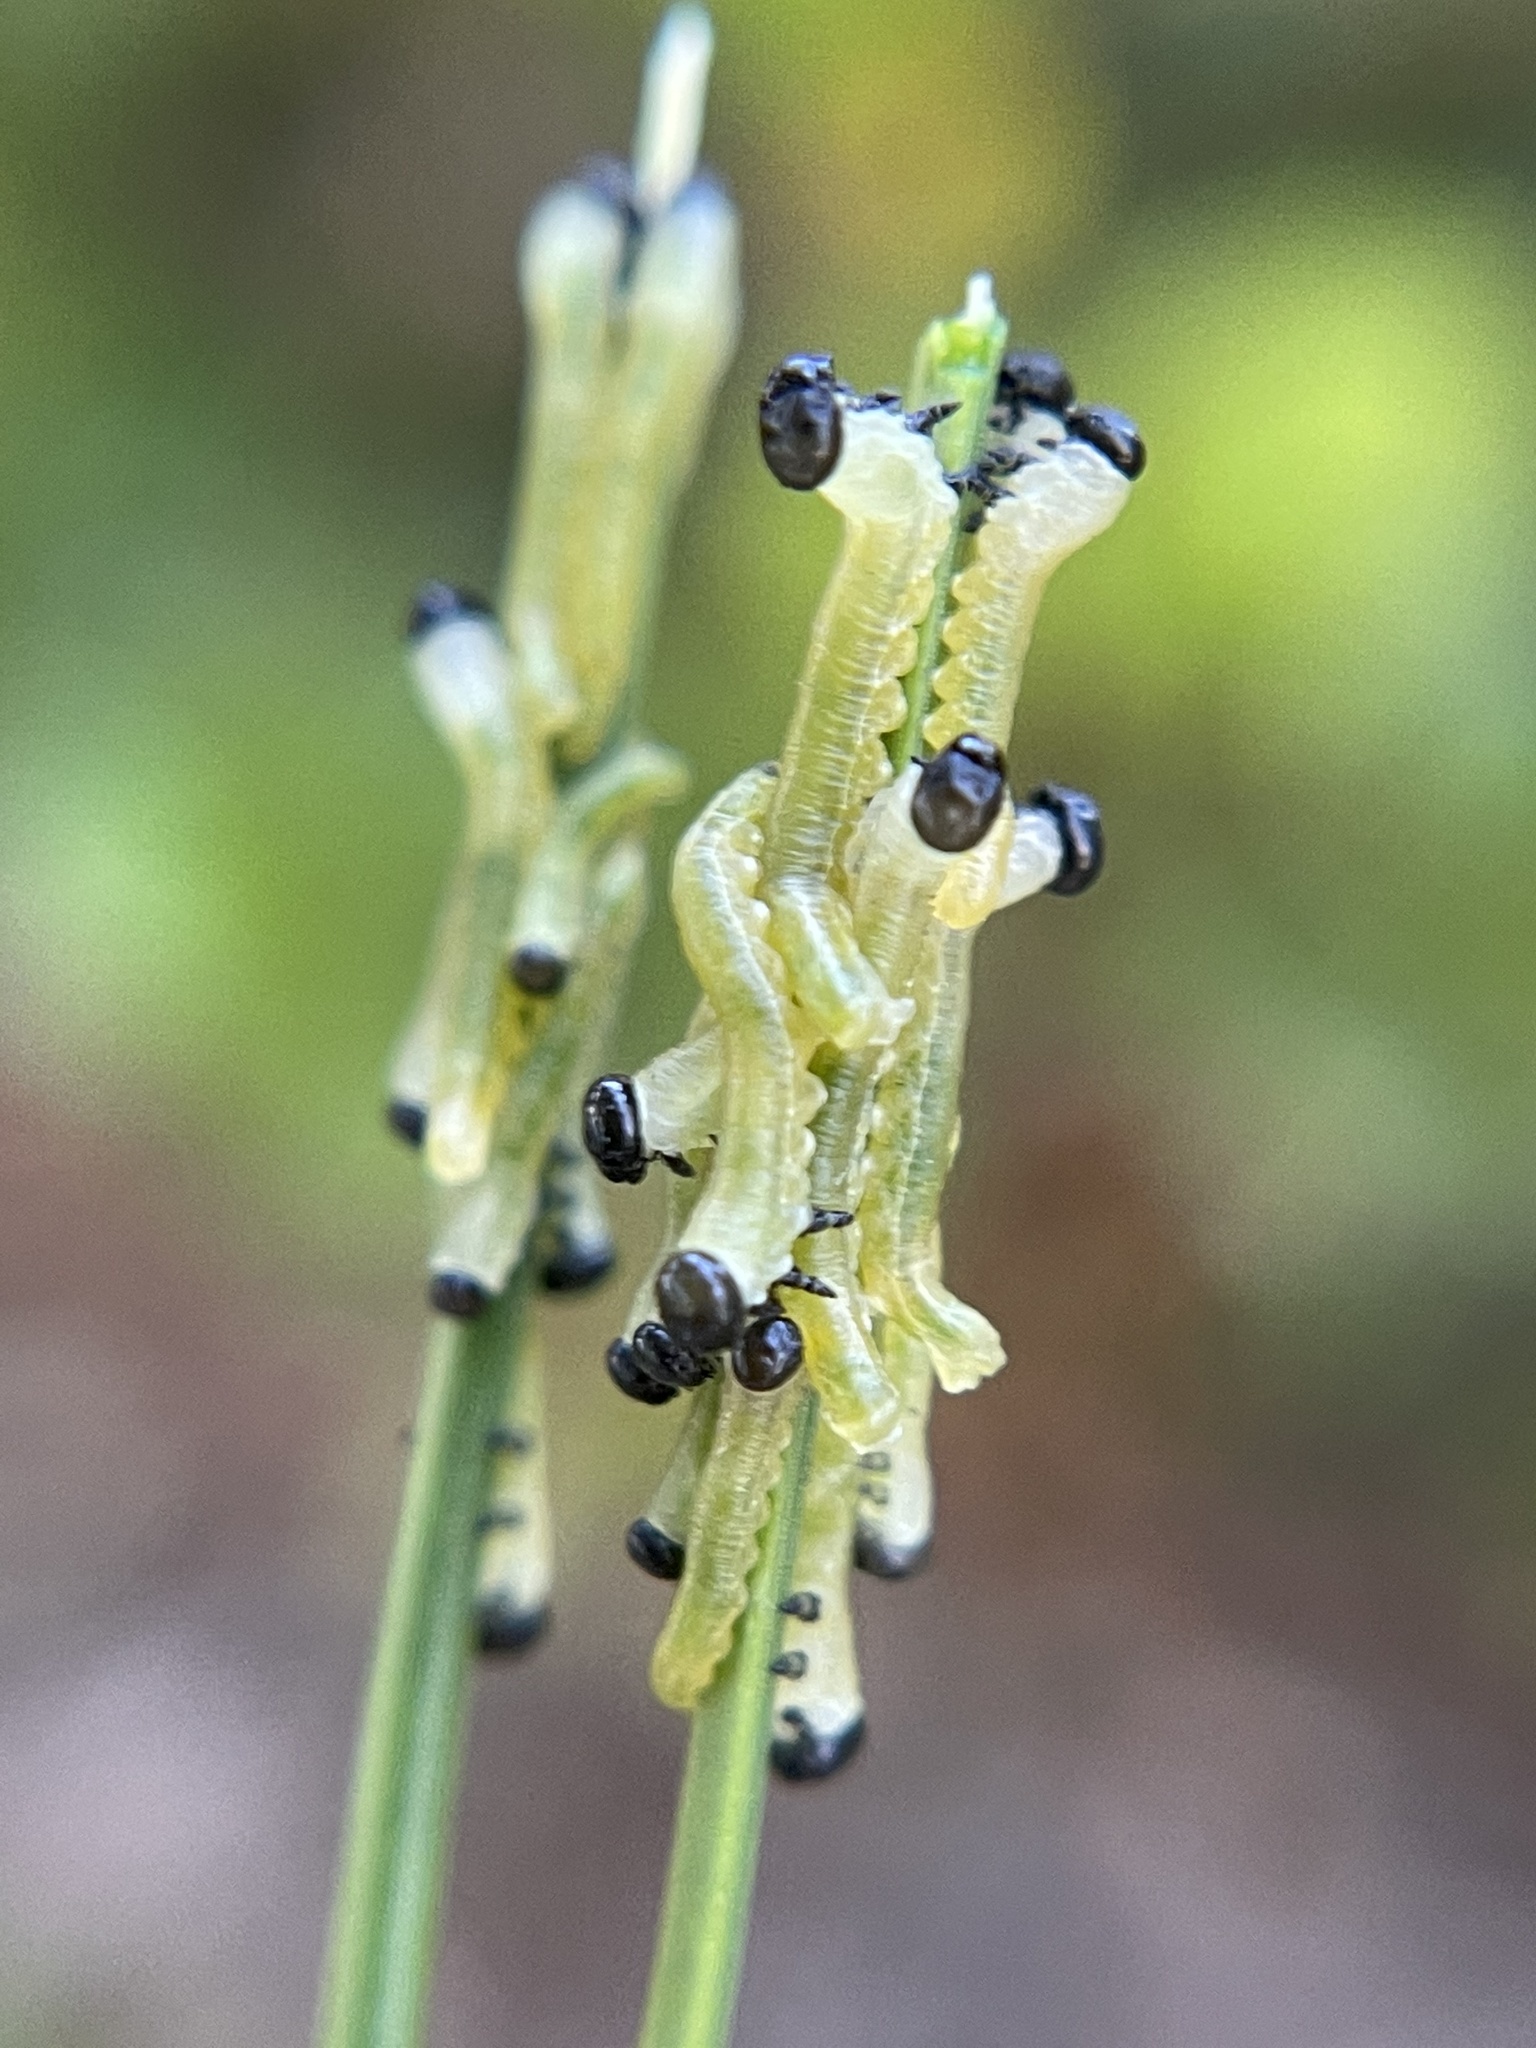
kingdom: Animalia
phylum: Arthropoda
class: Insecta
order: Hymenoptera
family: Diprionidae
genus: Neodiprion
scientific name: Neodiprion merkeli
